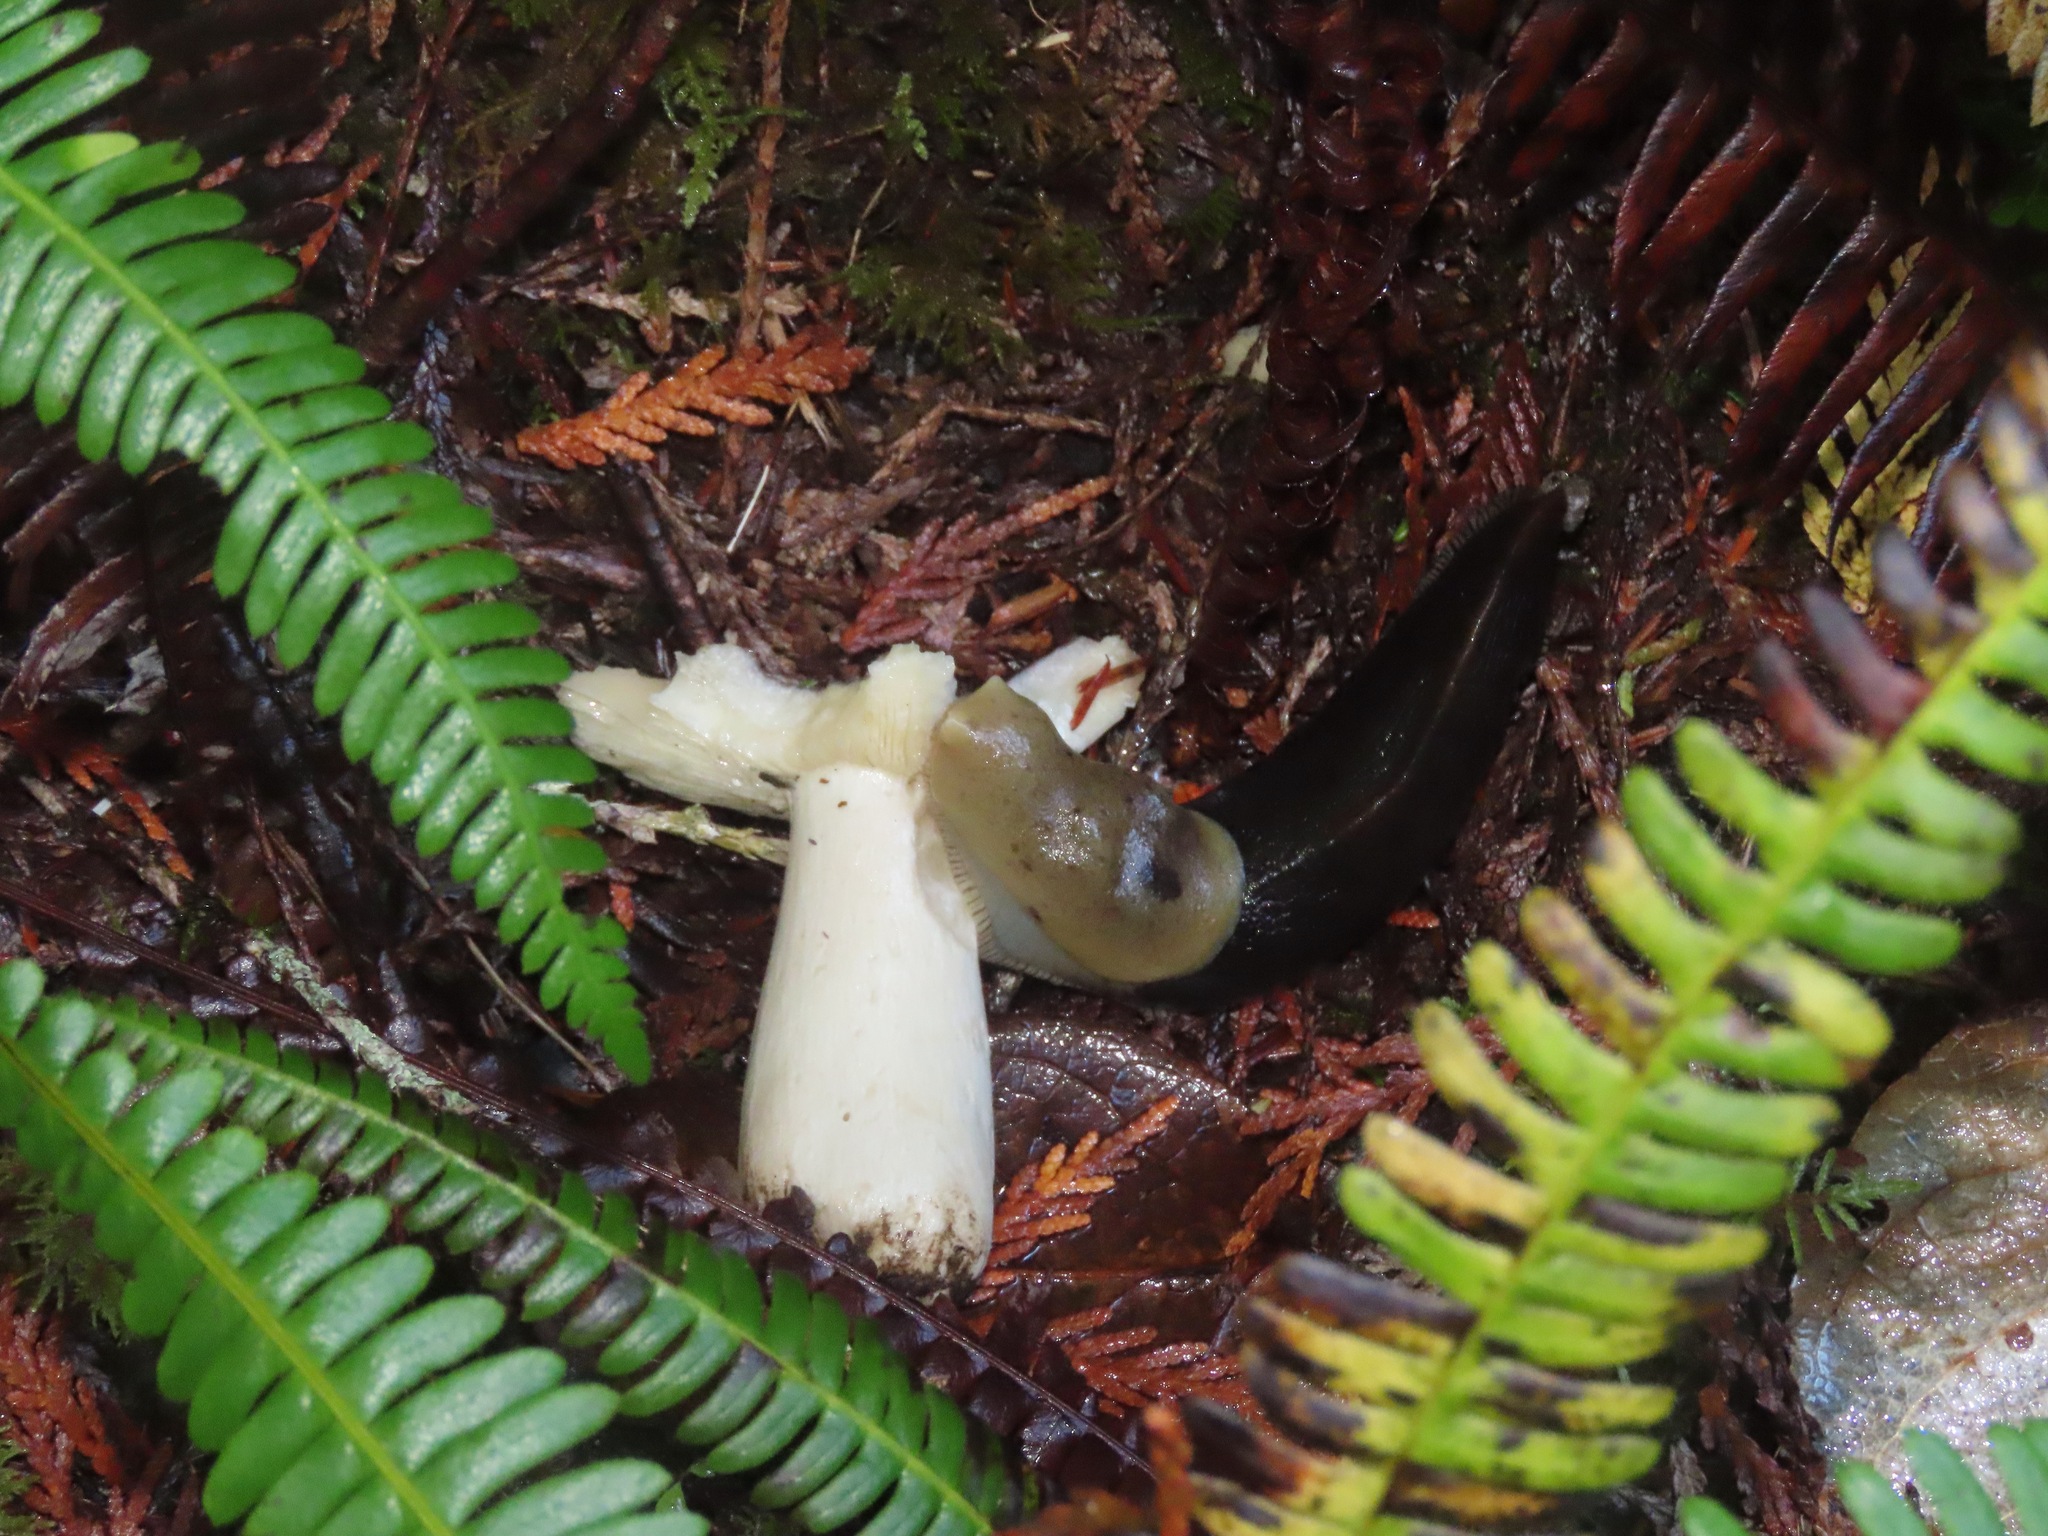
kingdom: Animalia
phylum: Mollusca
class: Gastropoda
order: Stylommatophora
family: Ariolimacidae
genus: Ariolimax
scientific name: Ariolimax columbianus
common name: Pacific banana slug
